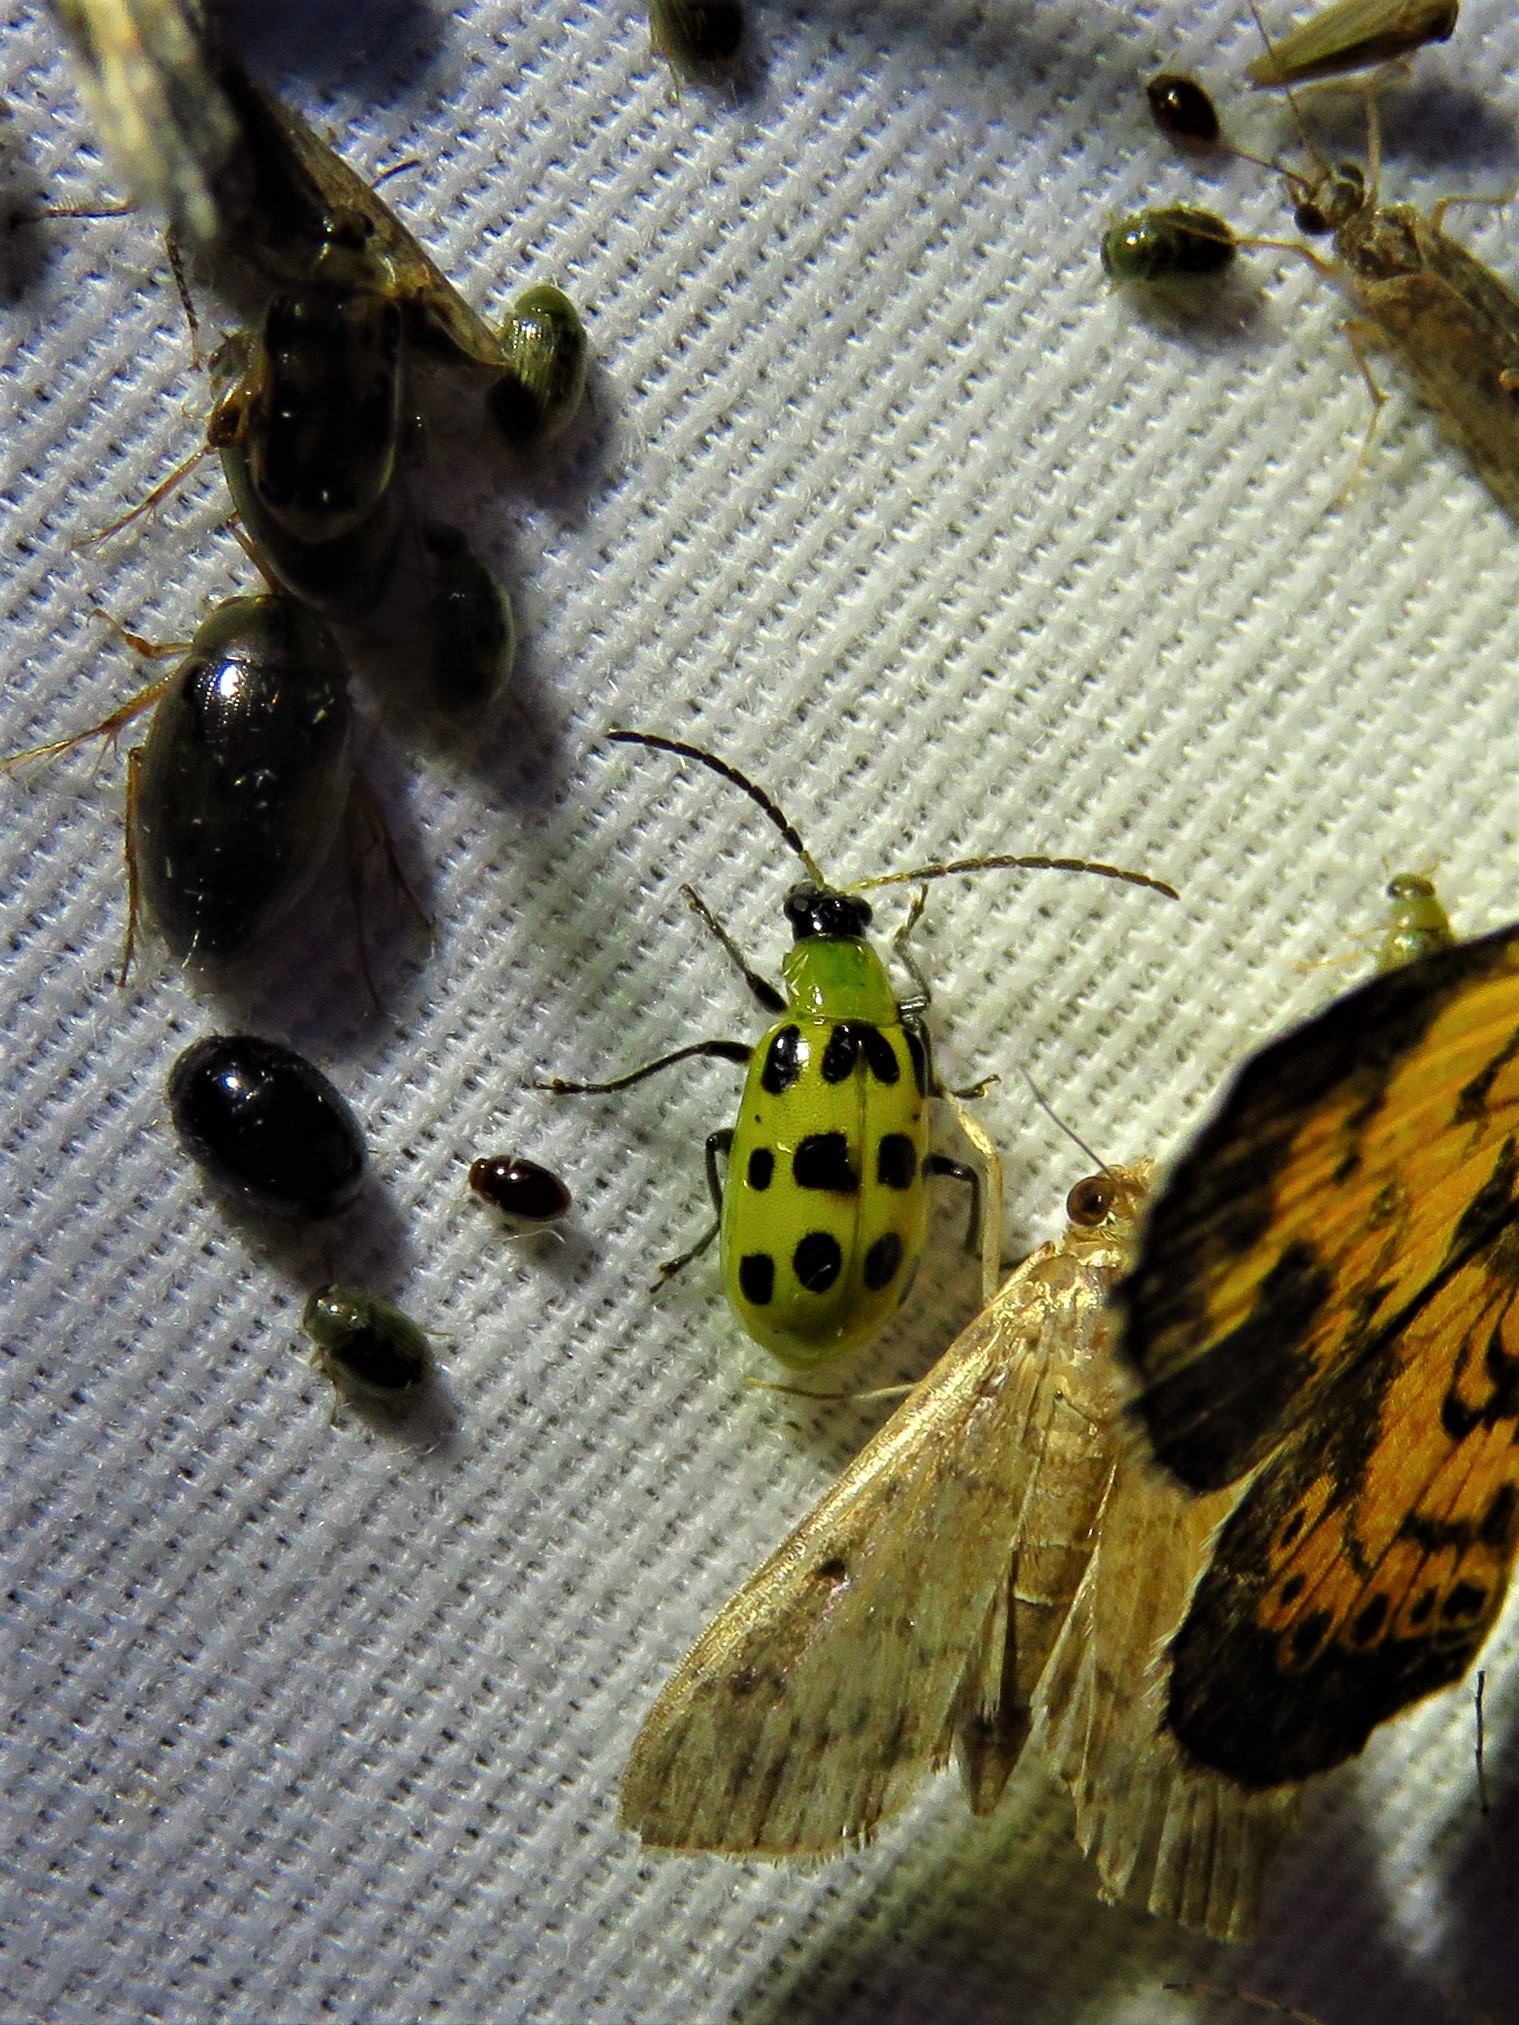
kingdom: Animalia
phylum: Arthropoda
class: Insecta
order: Coleoptera
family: Chrysomelidae
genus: Diabrotica
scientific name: Diabrotica undecimpunctata
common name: Spotted cucumber beetle
